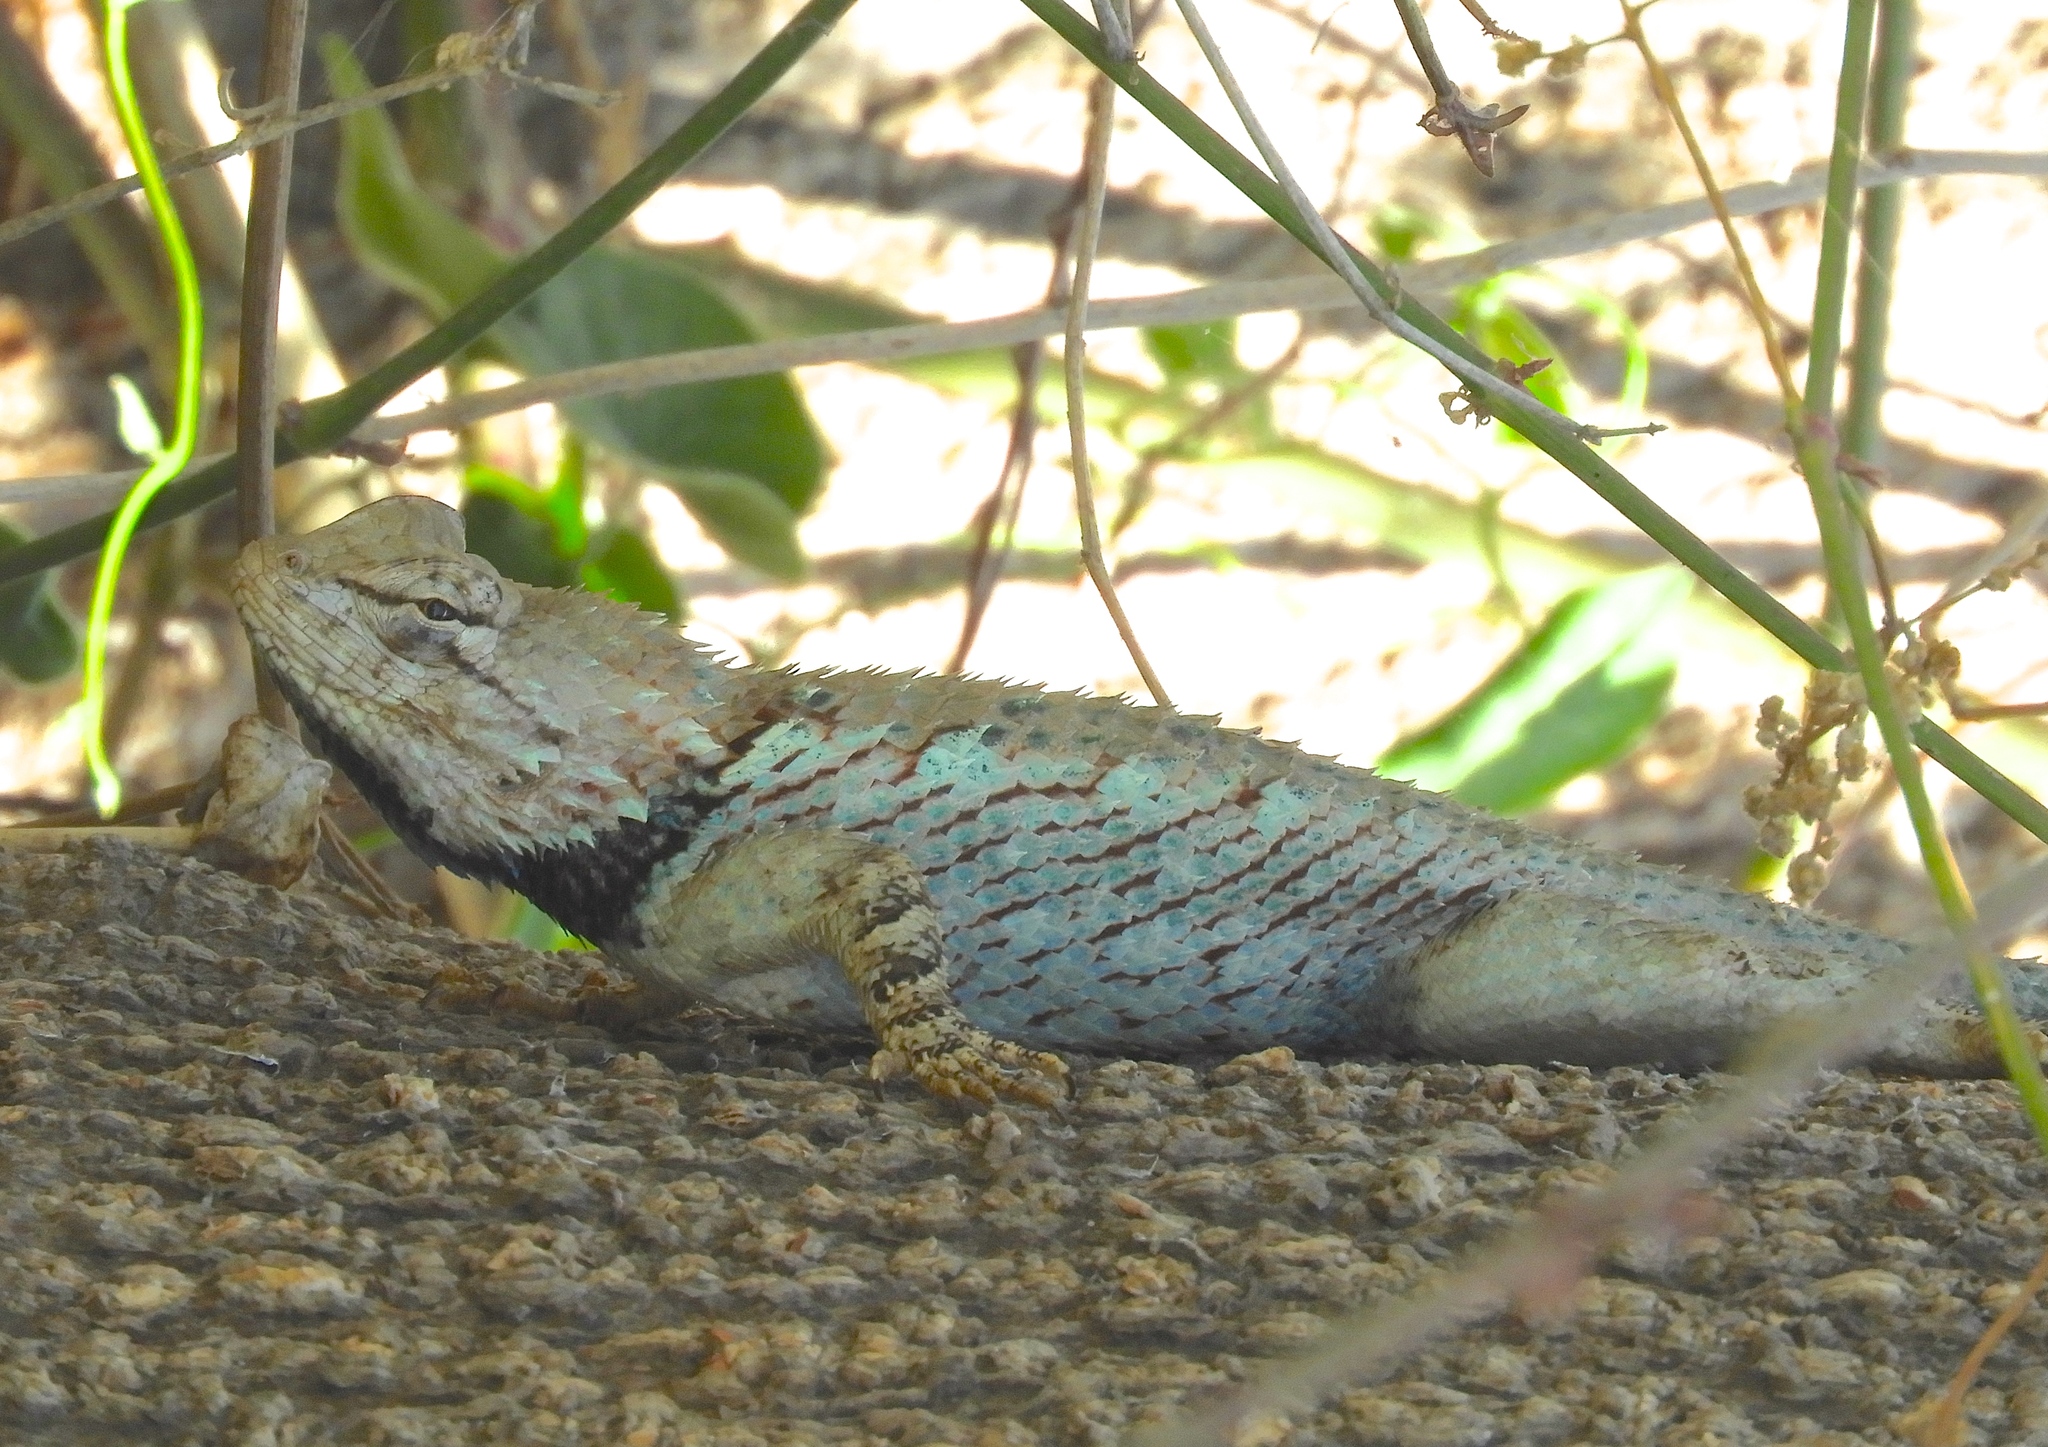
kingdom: Animalia
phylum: Chordata
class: Squamata
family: Phrynosomatidae
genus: Sceloporus
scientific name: Sceloporus clarkii
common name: Clark's spiny lizard
